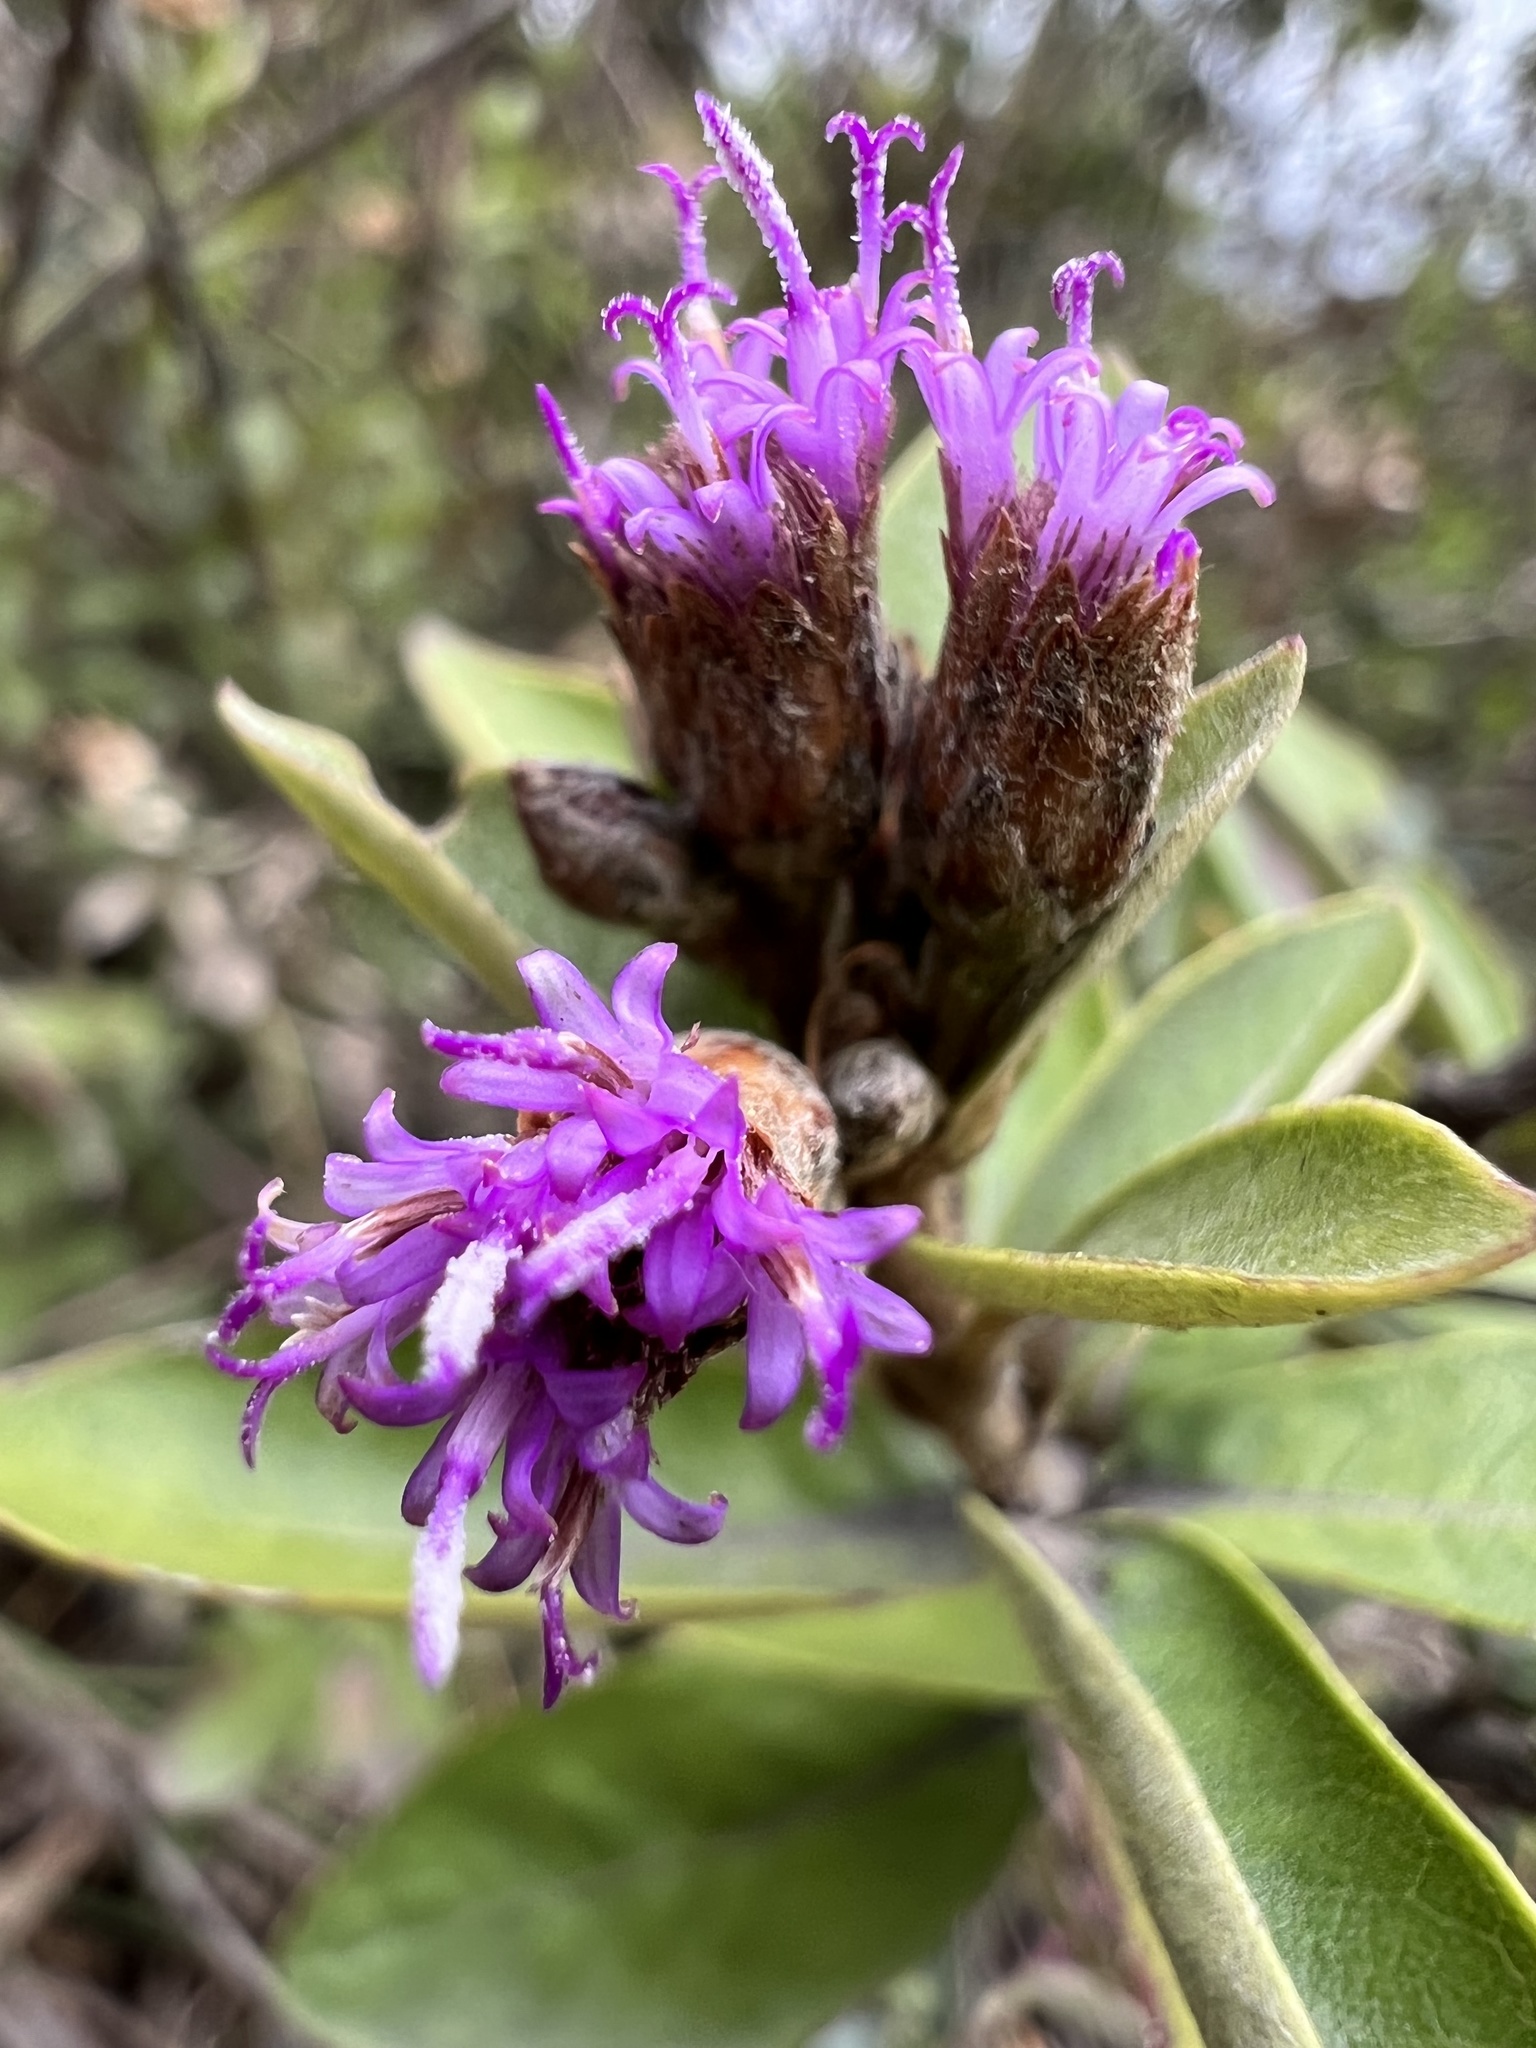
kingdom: Plantae
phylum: Tracheophyta
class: Magnoliopsida
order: Asterales
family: Asteraceae
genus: Lepidaploa
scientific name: Lepidaploa karstenii
